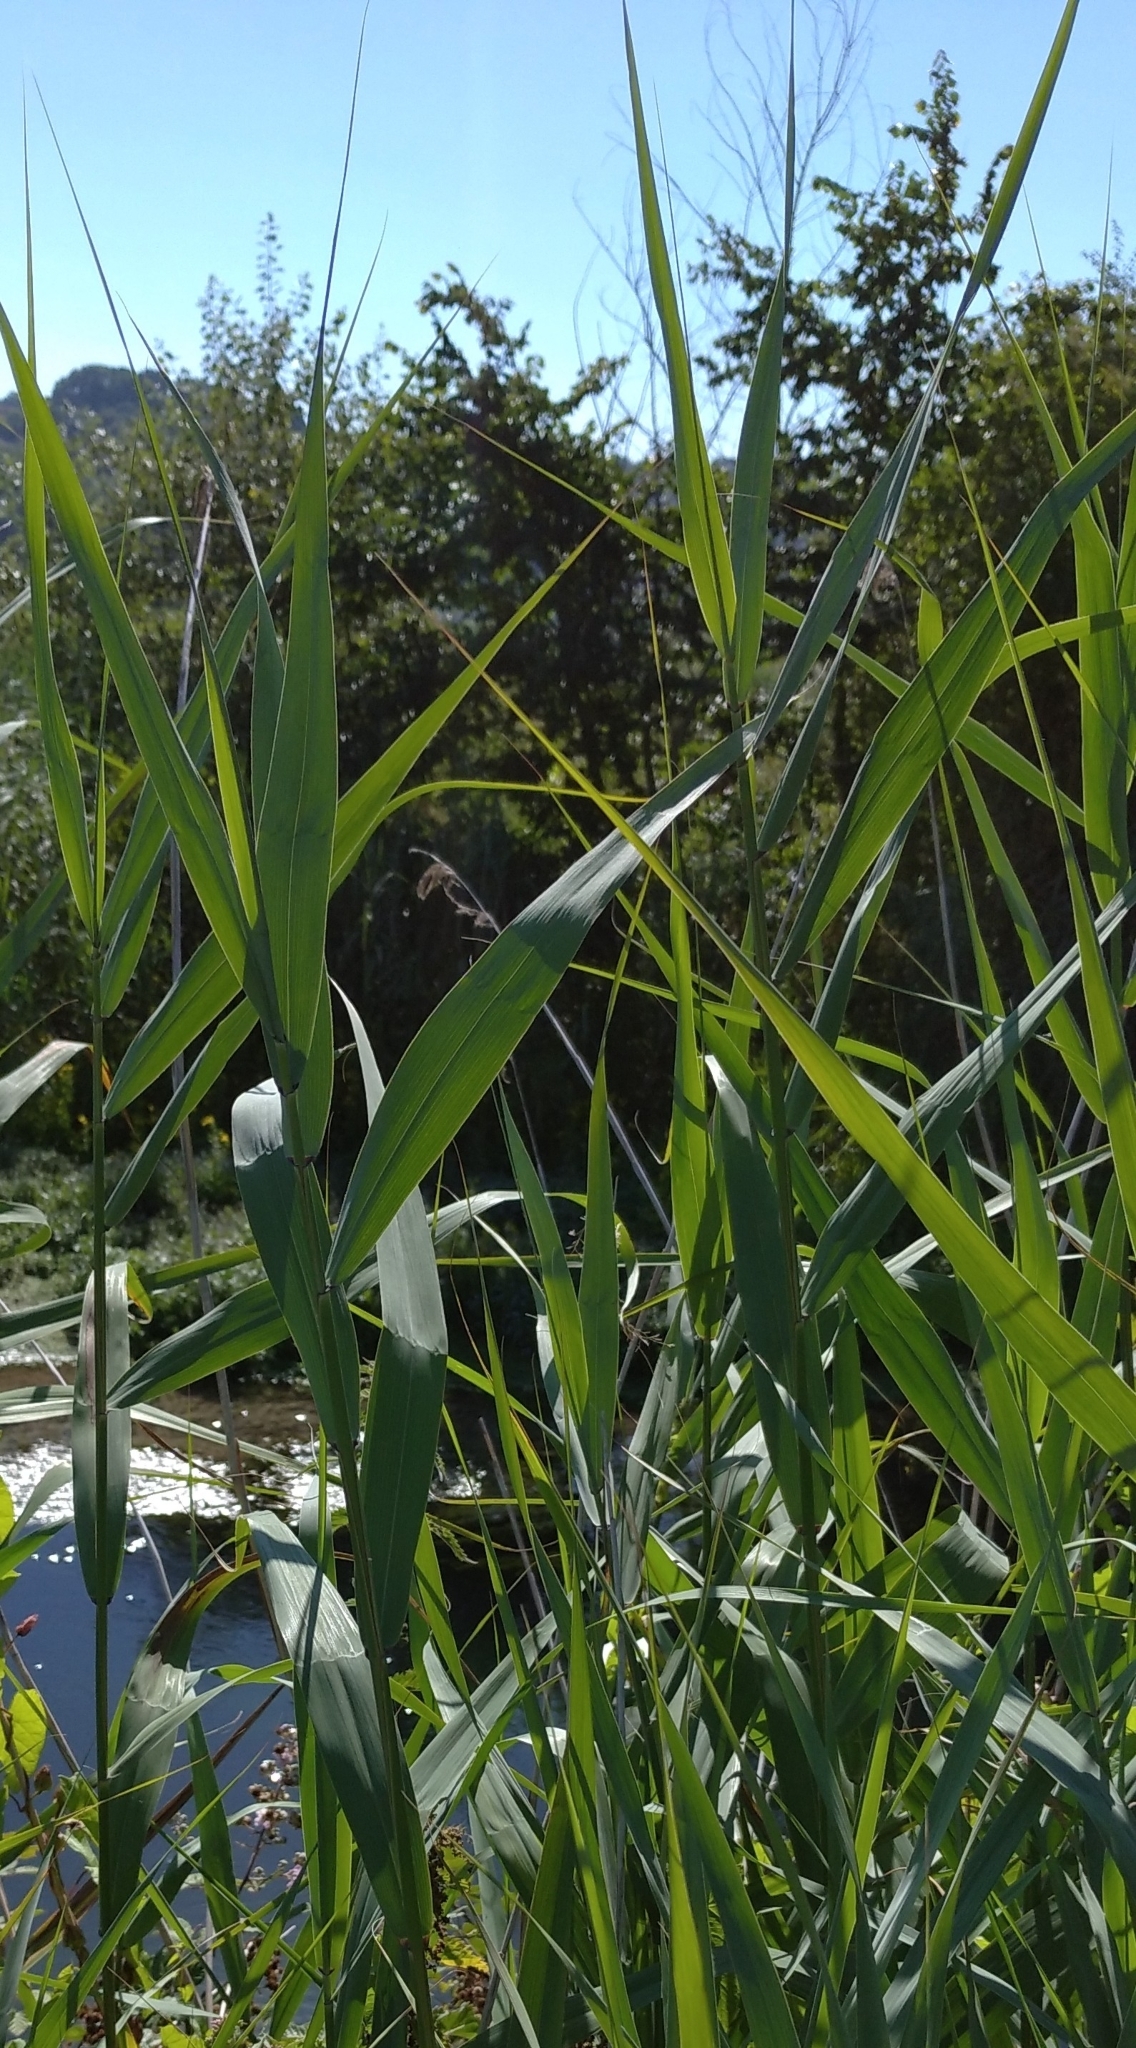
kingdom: Plantae
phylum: Tracheophyta
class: Liliopsida
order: Poales
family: Poaceae
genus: Phragmites
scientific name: Phragmites australis
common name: Common reed
